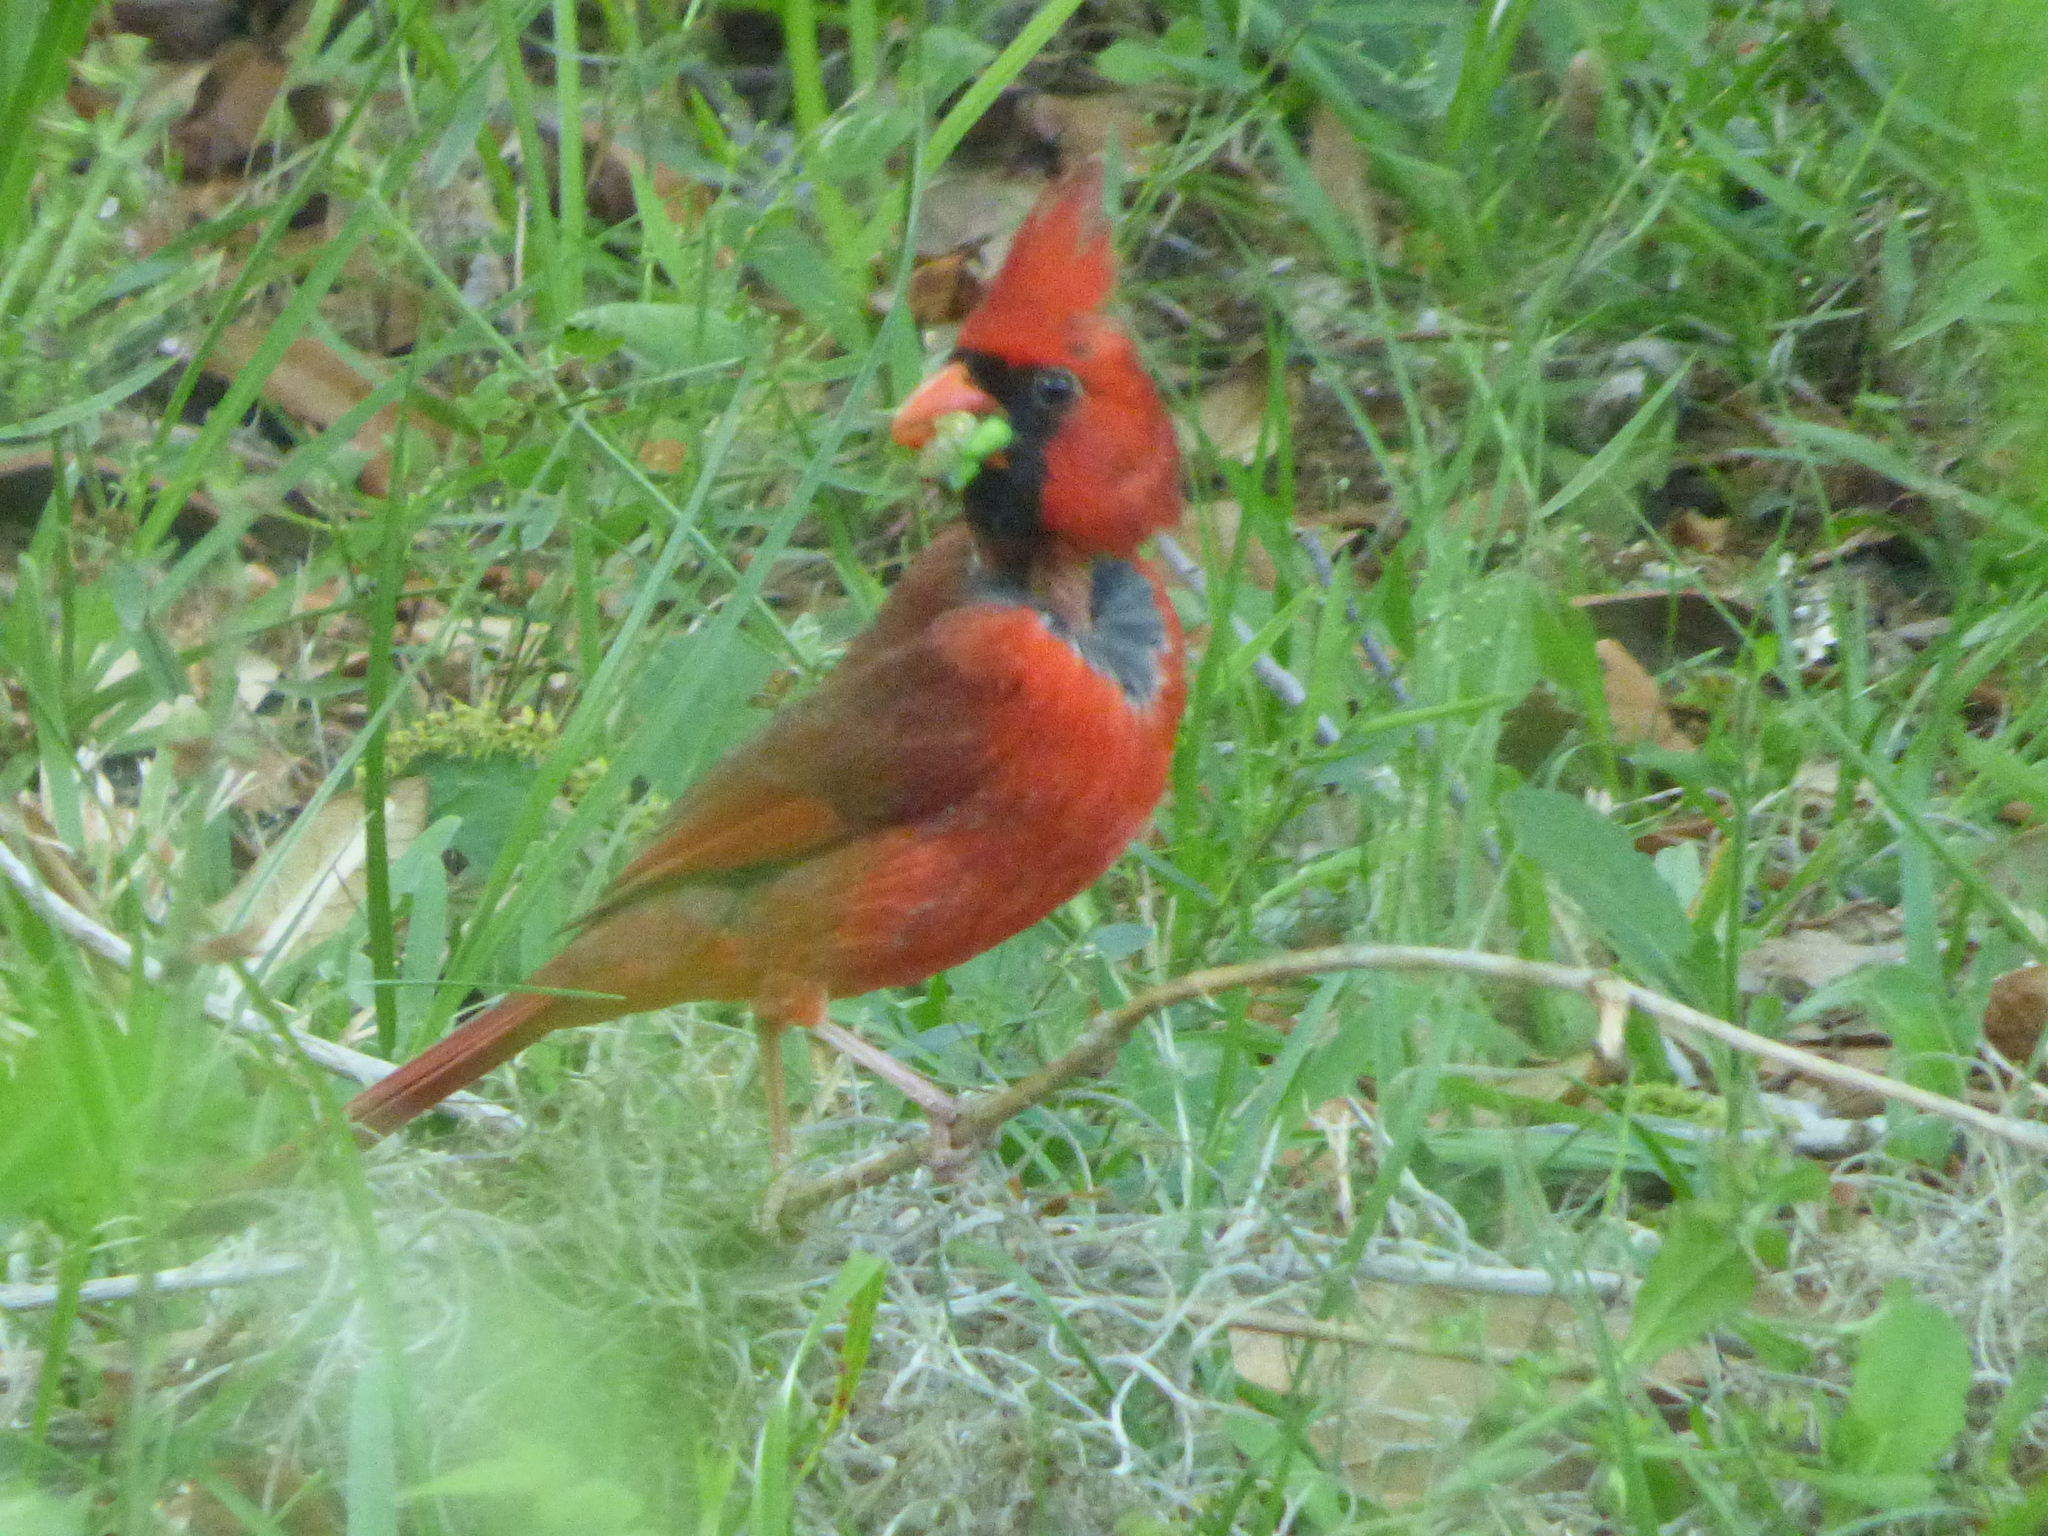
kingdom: Animalia
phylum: Chordata
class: Aves
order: Passeriformes
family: Cardinalidae
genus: Cardinalis
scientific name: Cardinalis cardinalis
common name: Northern cardinal
